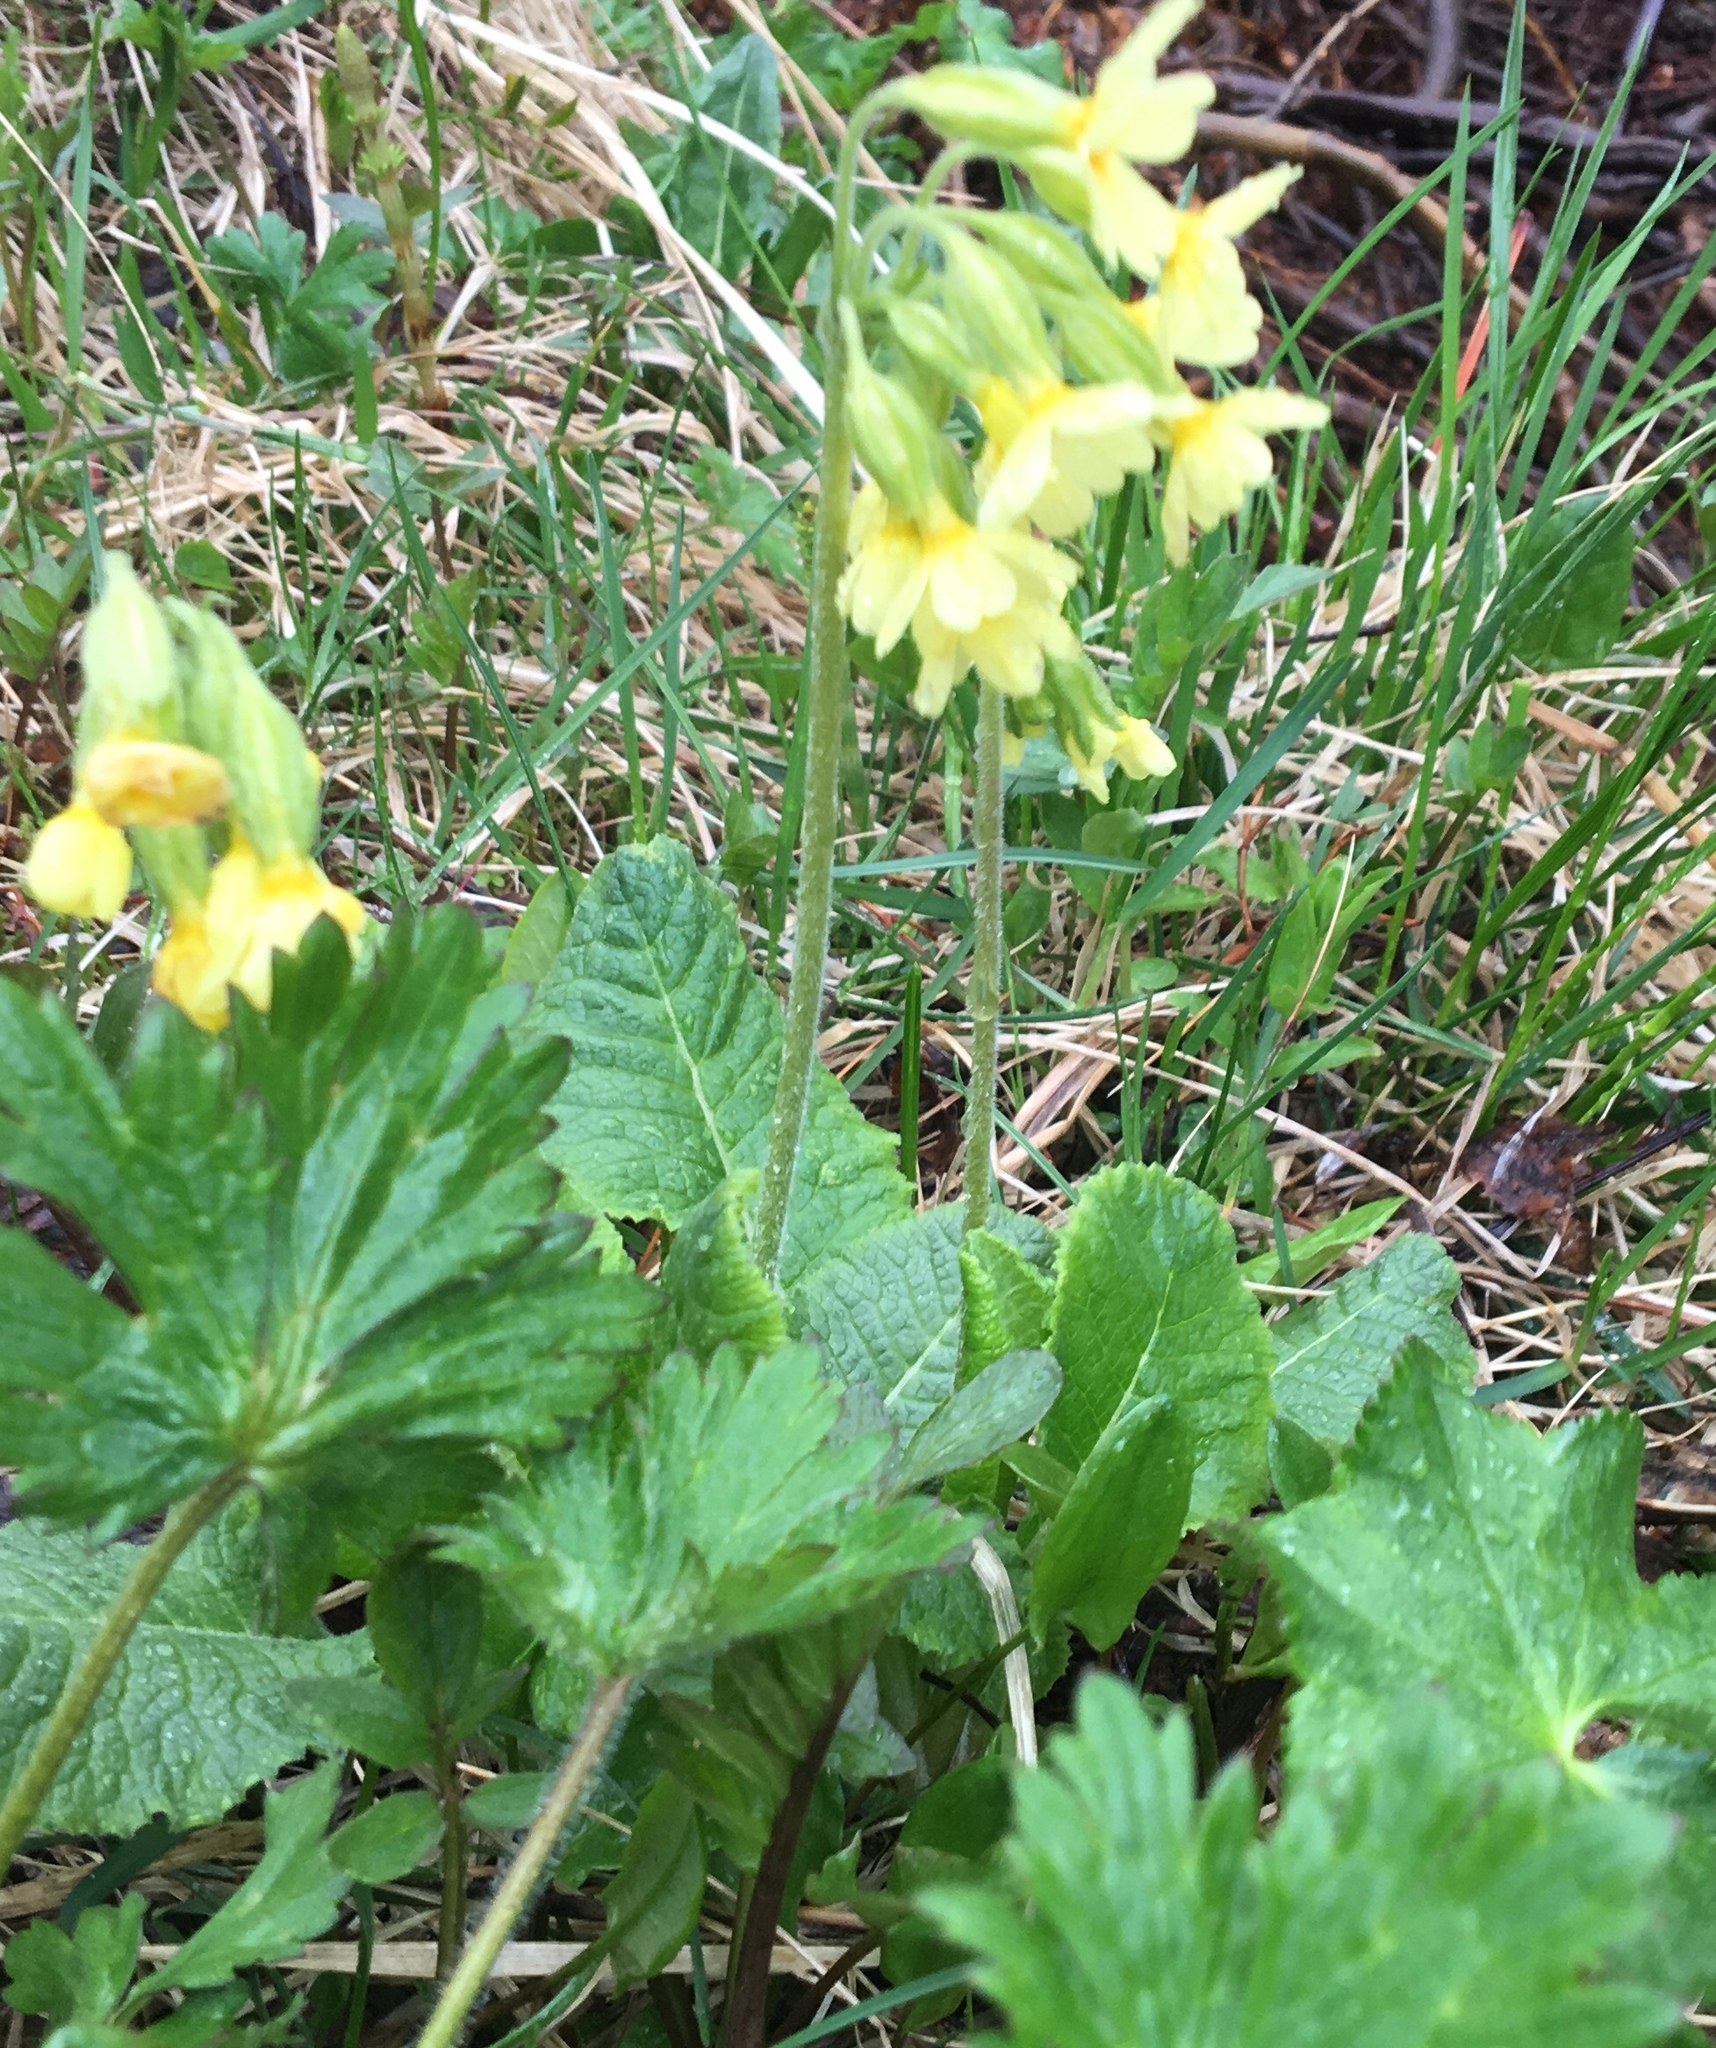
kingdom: Plantae
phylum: Tracheophyta
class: Magnoliopsida
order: Ericales
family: Primulaceae
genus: Primula
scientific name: Primula elatior
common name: Oxlip
